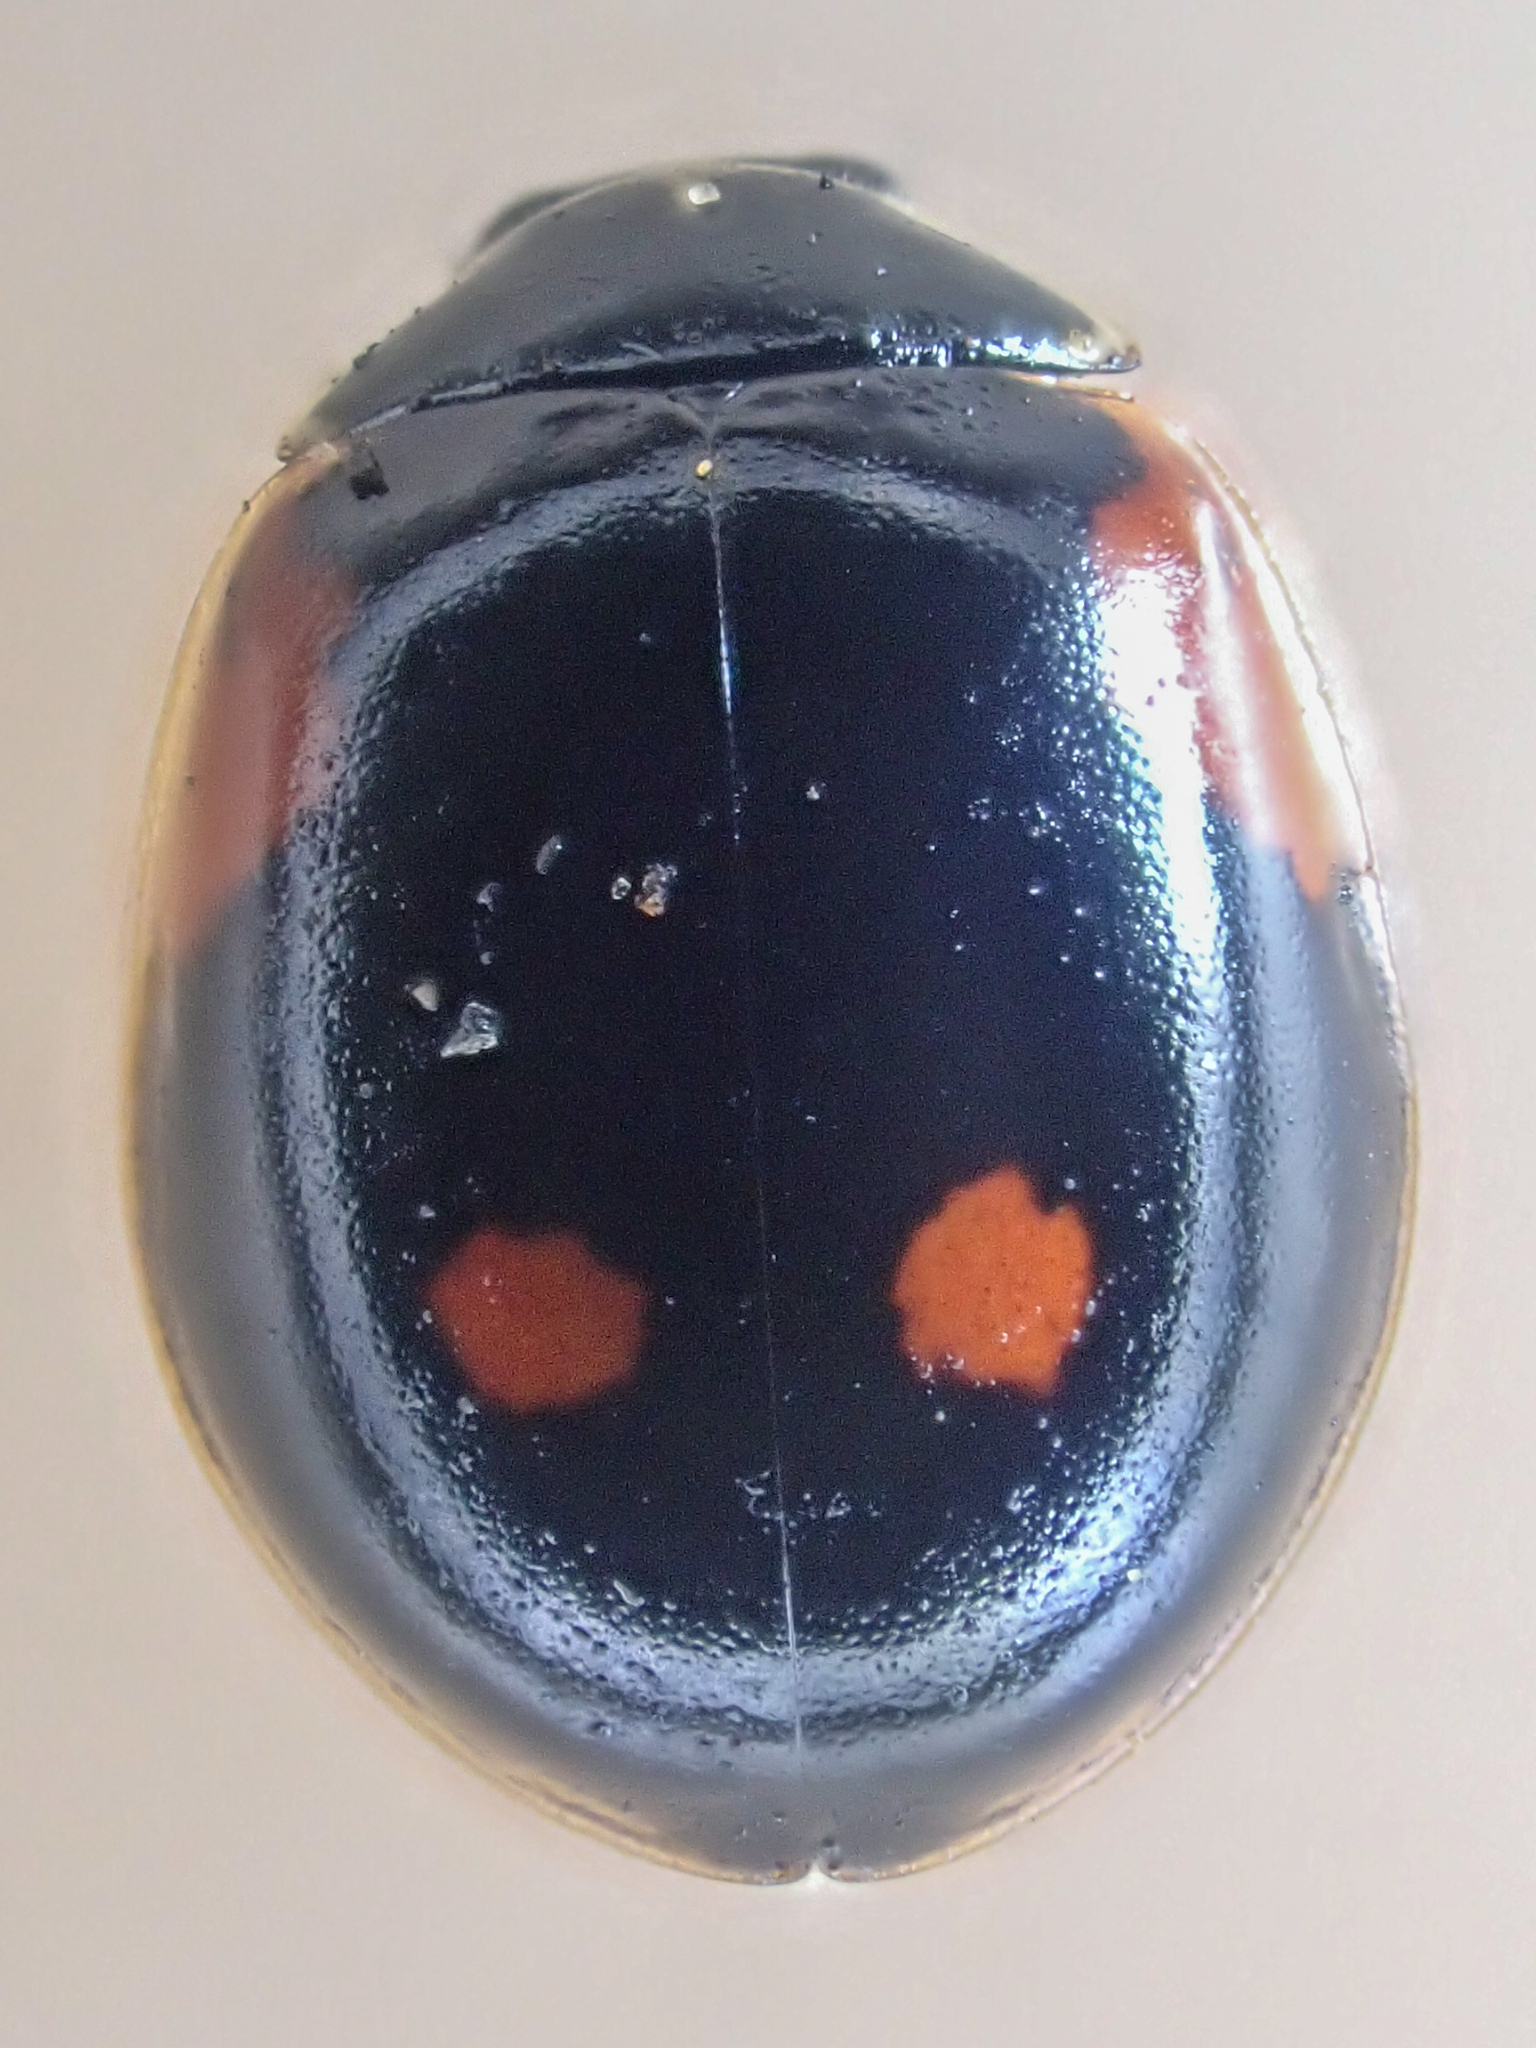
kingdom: Animalia
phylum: Arthropoda
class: Insecta
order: Coleoptera
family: Coccinellidae
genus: Adalia
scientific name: Adalia bipunctata
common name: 2-spot ladybird
